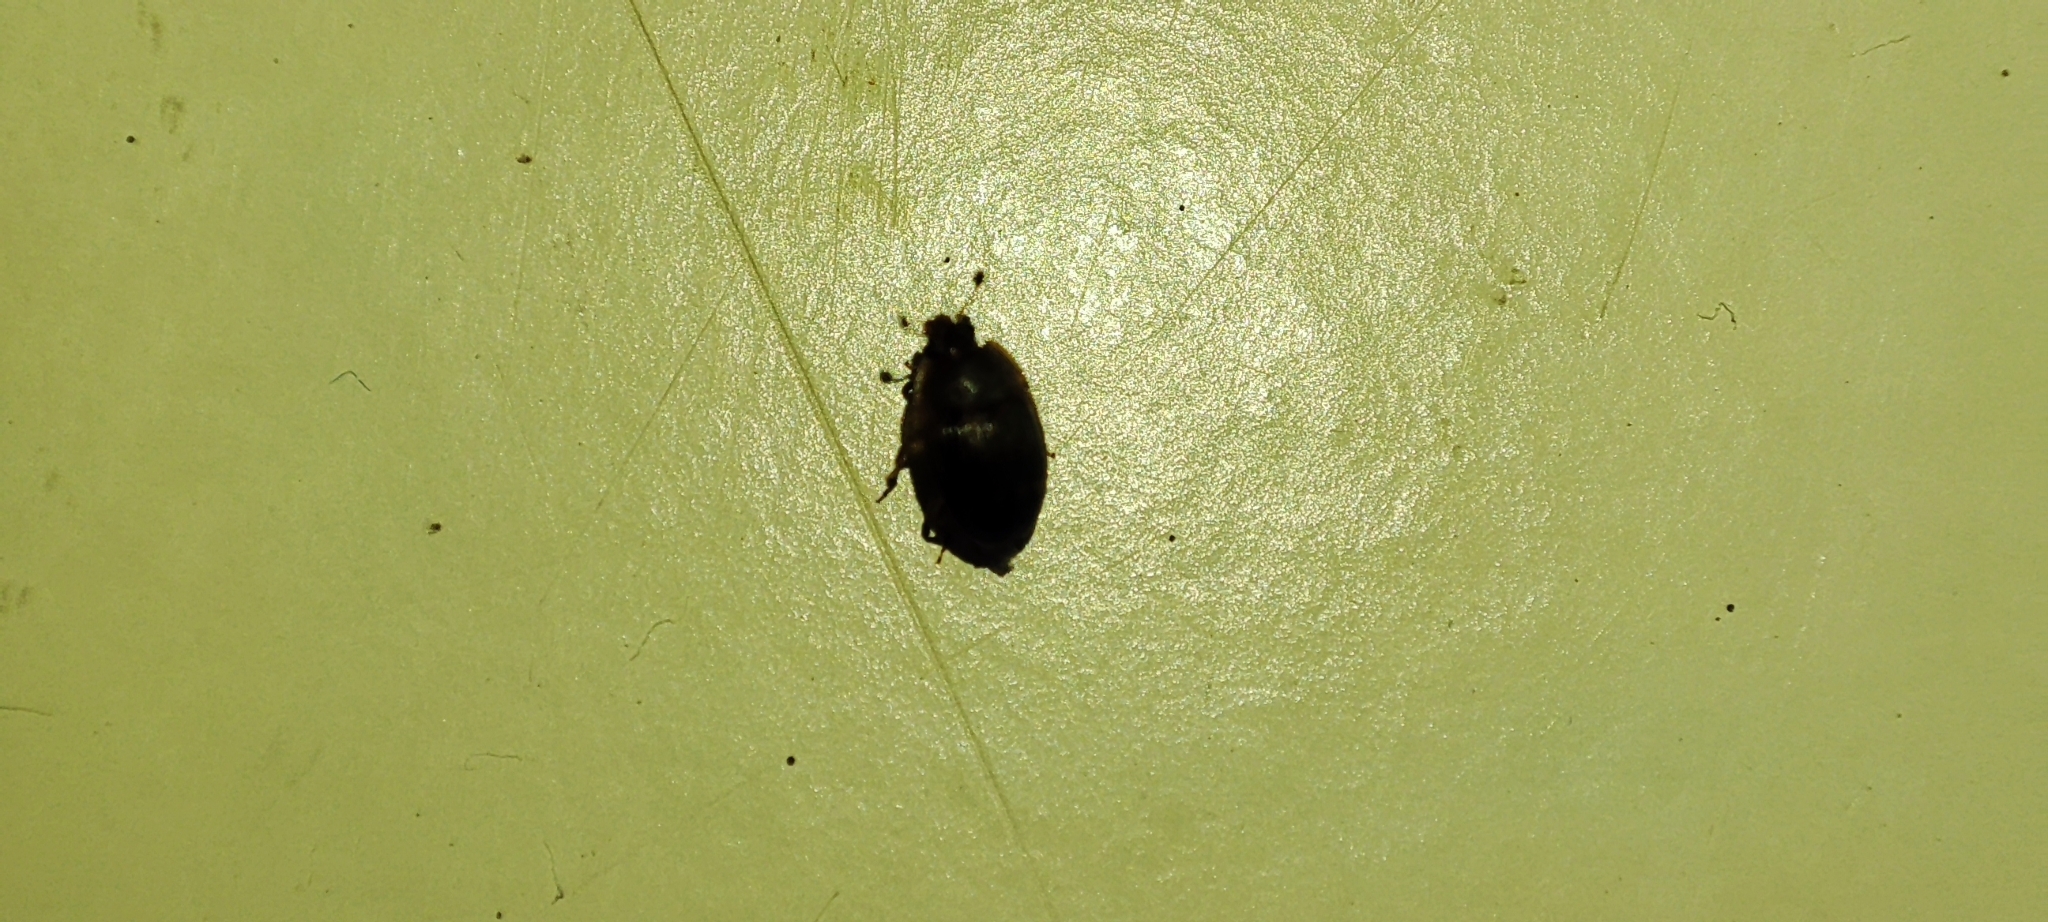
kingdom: Animalia
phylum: Arthropoda
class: Insecta
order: Coleoptera
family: Nitidulidae
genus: Stelidota
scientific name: Stelidota geminata
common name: Strawberry sap beetle
